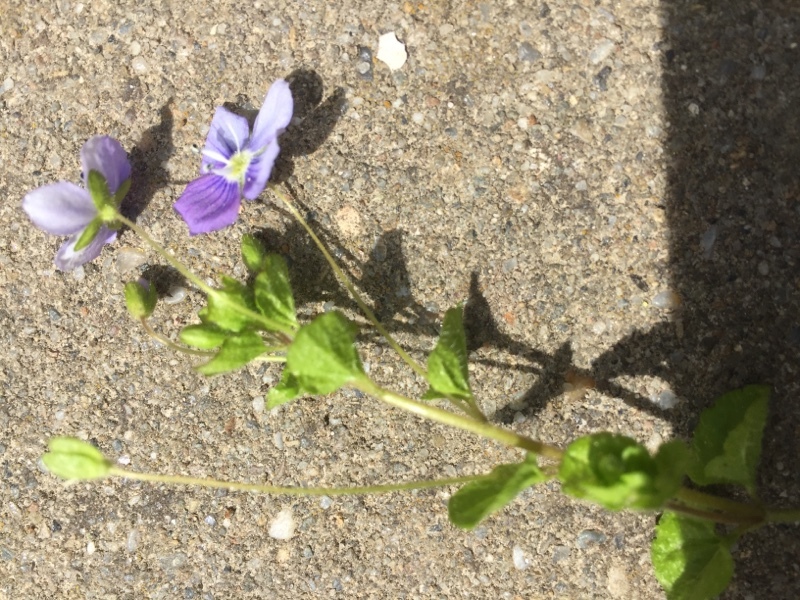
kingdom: Plantae
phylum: Tracheophyta
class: Magnoliopsida
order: Lamiales
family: Plantaginaceae
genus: Veronica
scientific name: Veronica filiformis
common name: Slender speedwell
